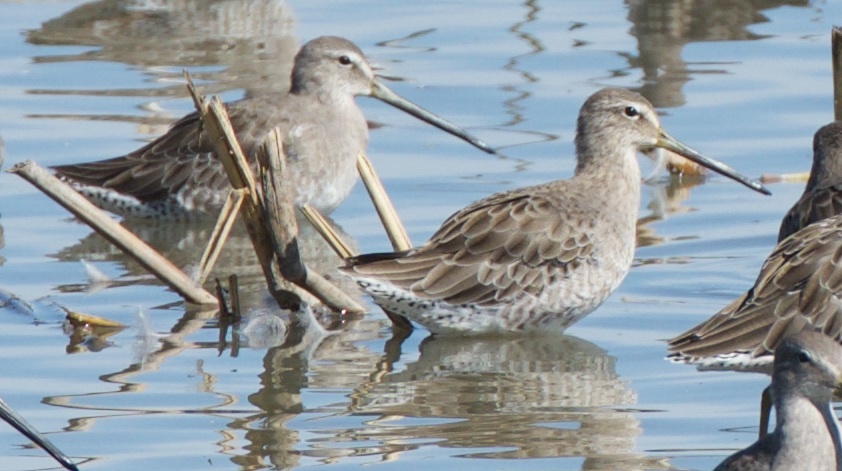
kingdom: Animalia
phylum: Chordata
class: Aves
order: Charadriiformes
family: Scolopacidae
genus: Limnodromus
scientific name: Limnodromus scolopaceus
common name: Long-billed dowitcher
